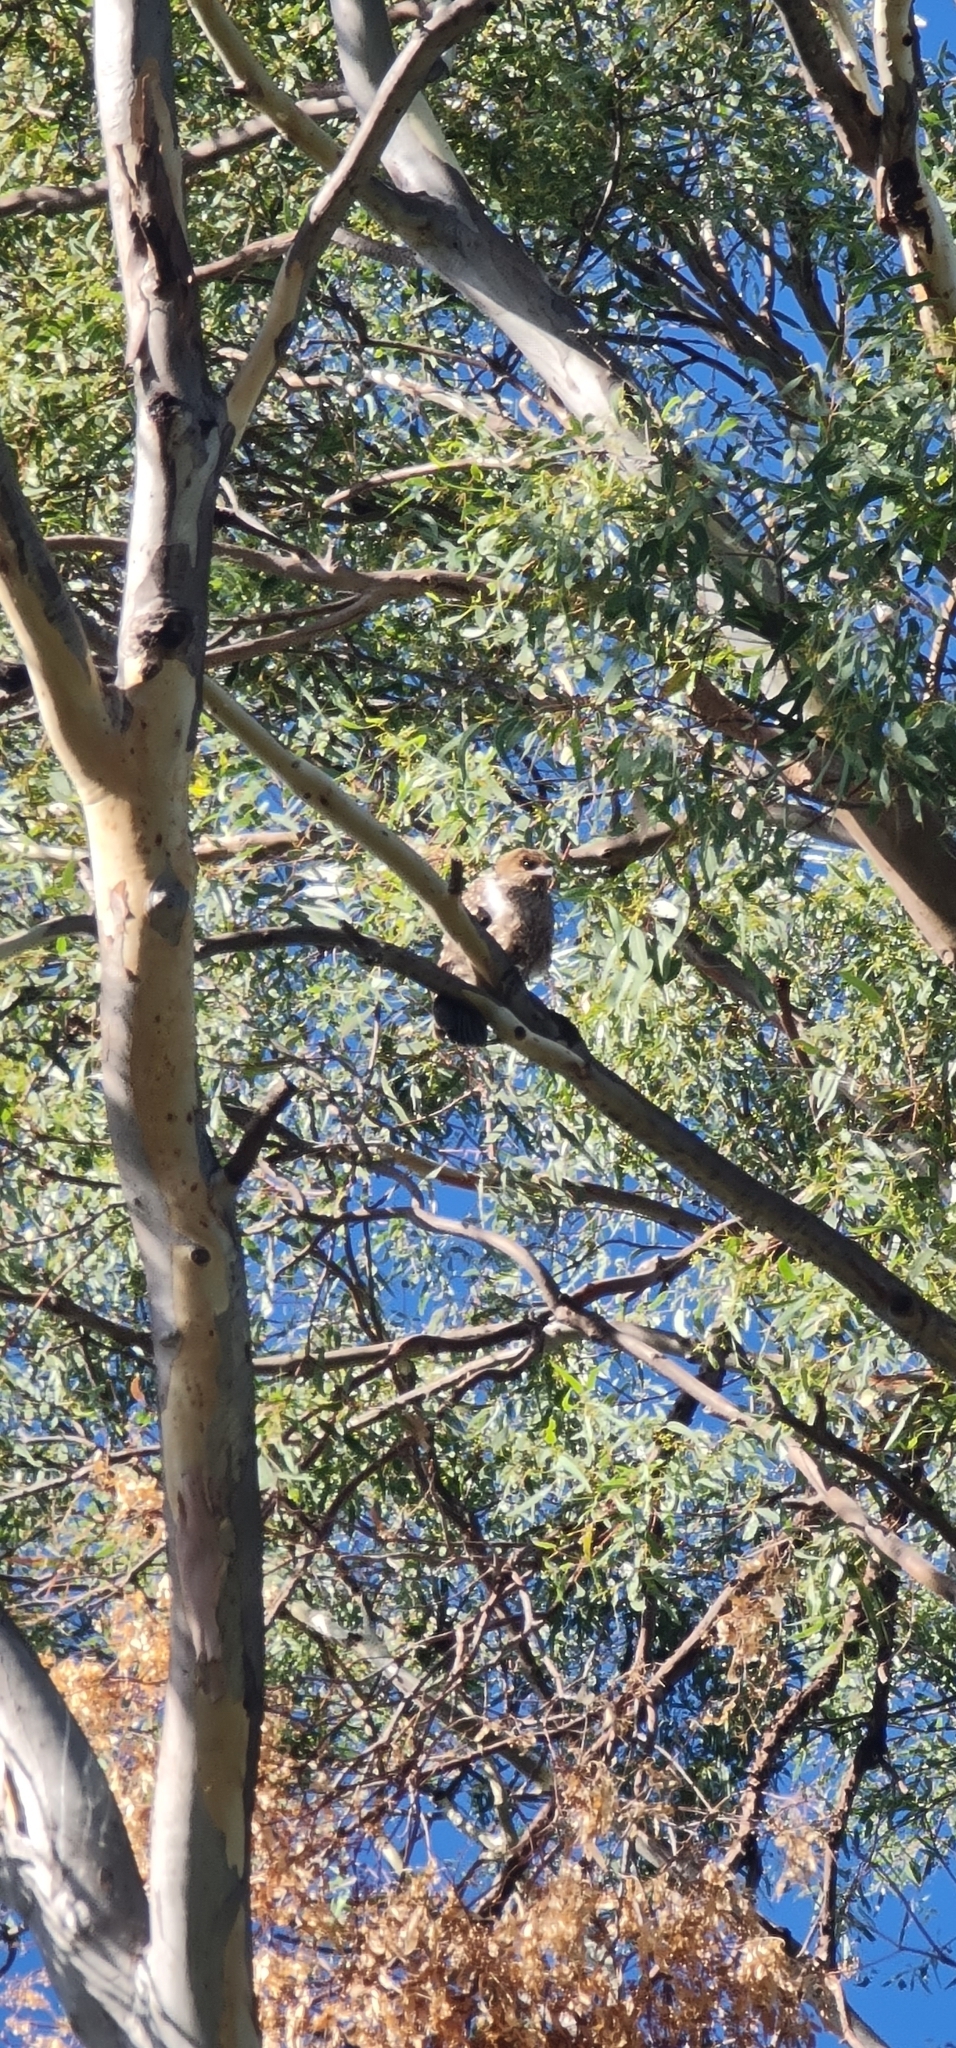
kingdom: Animalia
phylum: Chordata
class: Aves
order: Accipitriformes
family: Accipitridae
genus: Haliastur
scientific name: Haliastur sphenurus
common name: Whistling kite
